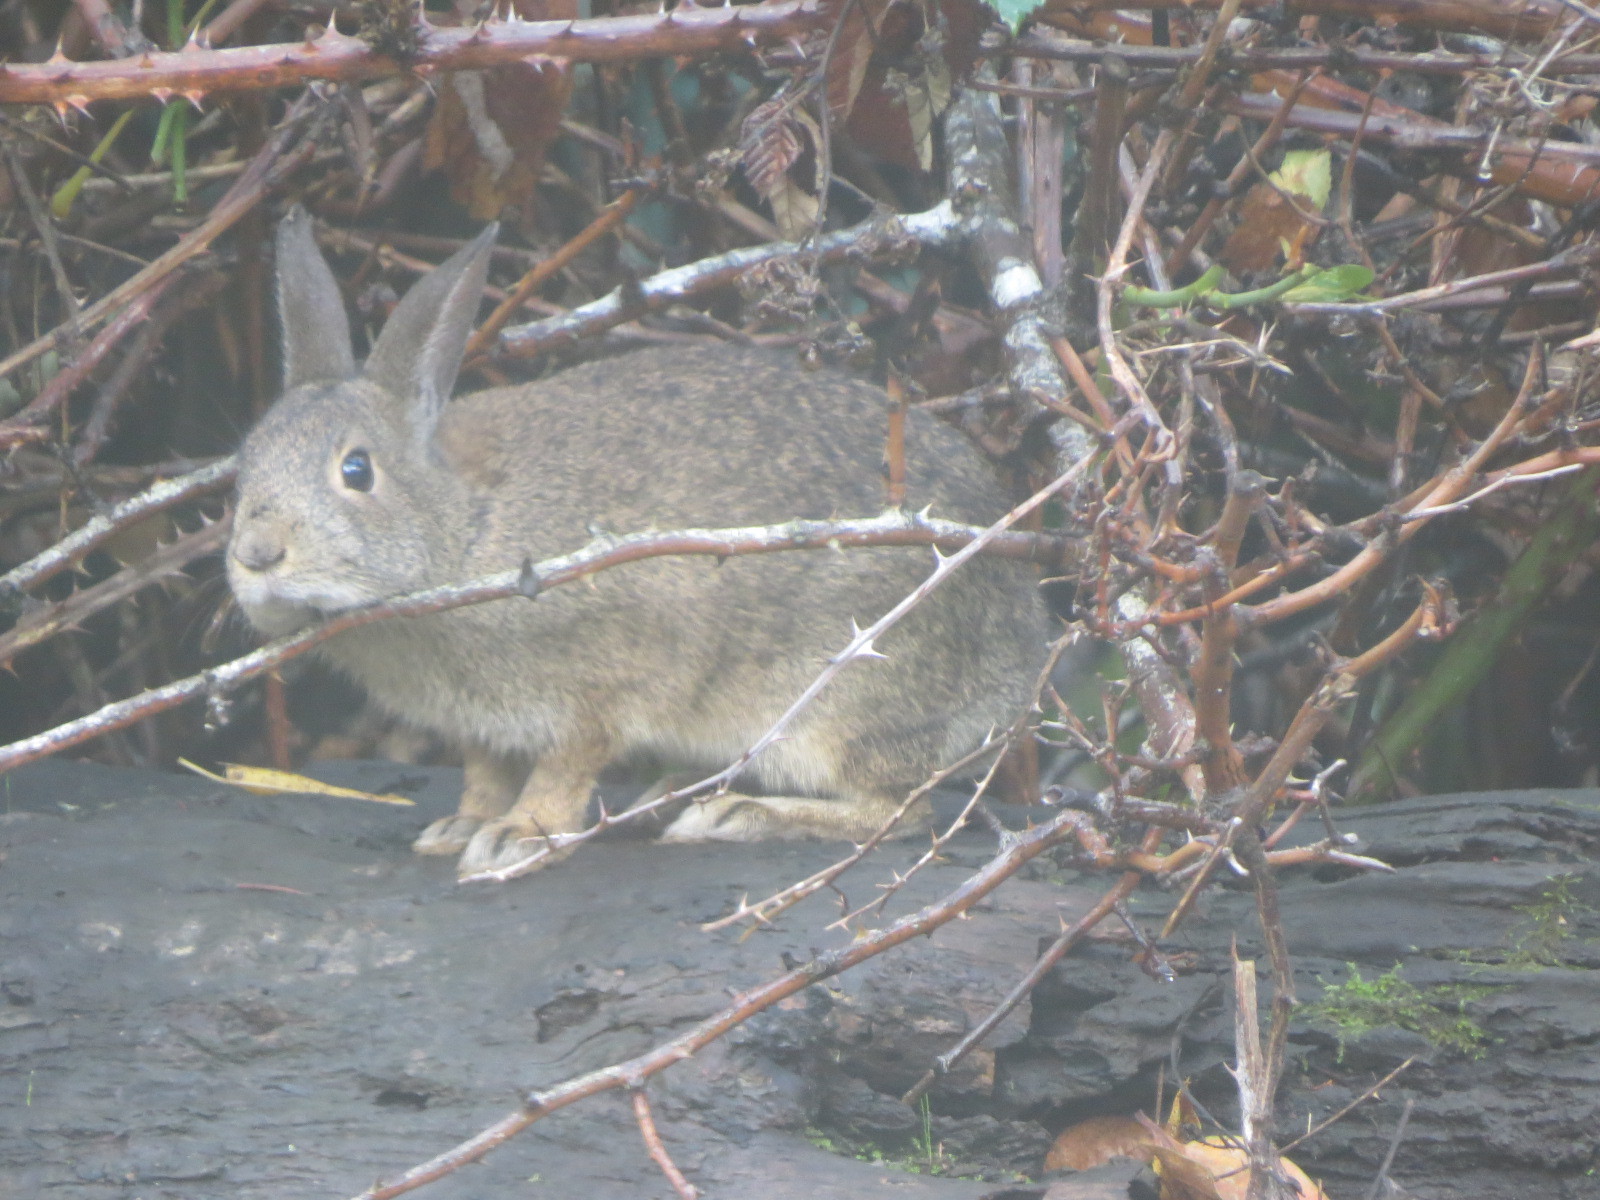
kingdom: Animalia
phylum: Chordata
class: Mammalia
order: Lagomorpha
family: Leporidae
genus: Sylvilagus
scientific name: Sylvilagus bachmani
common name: Brush rabbit
